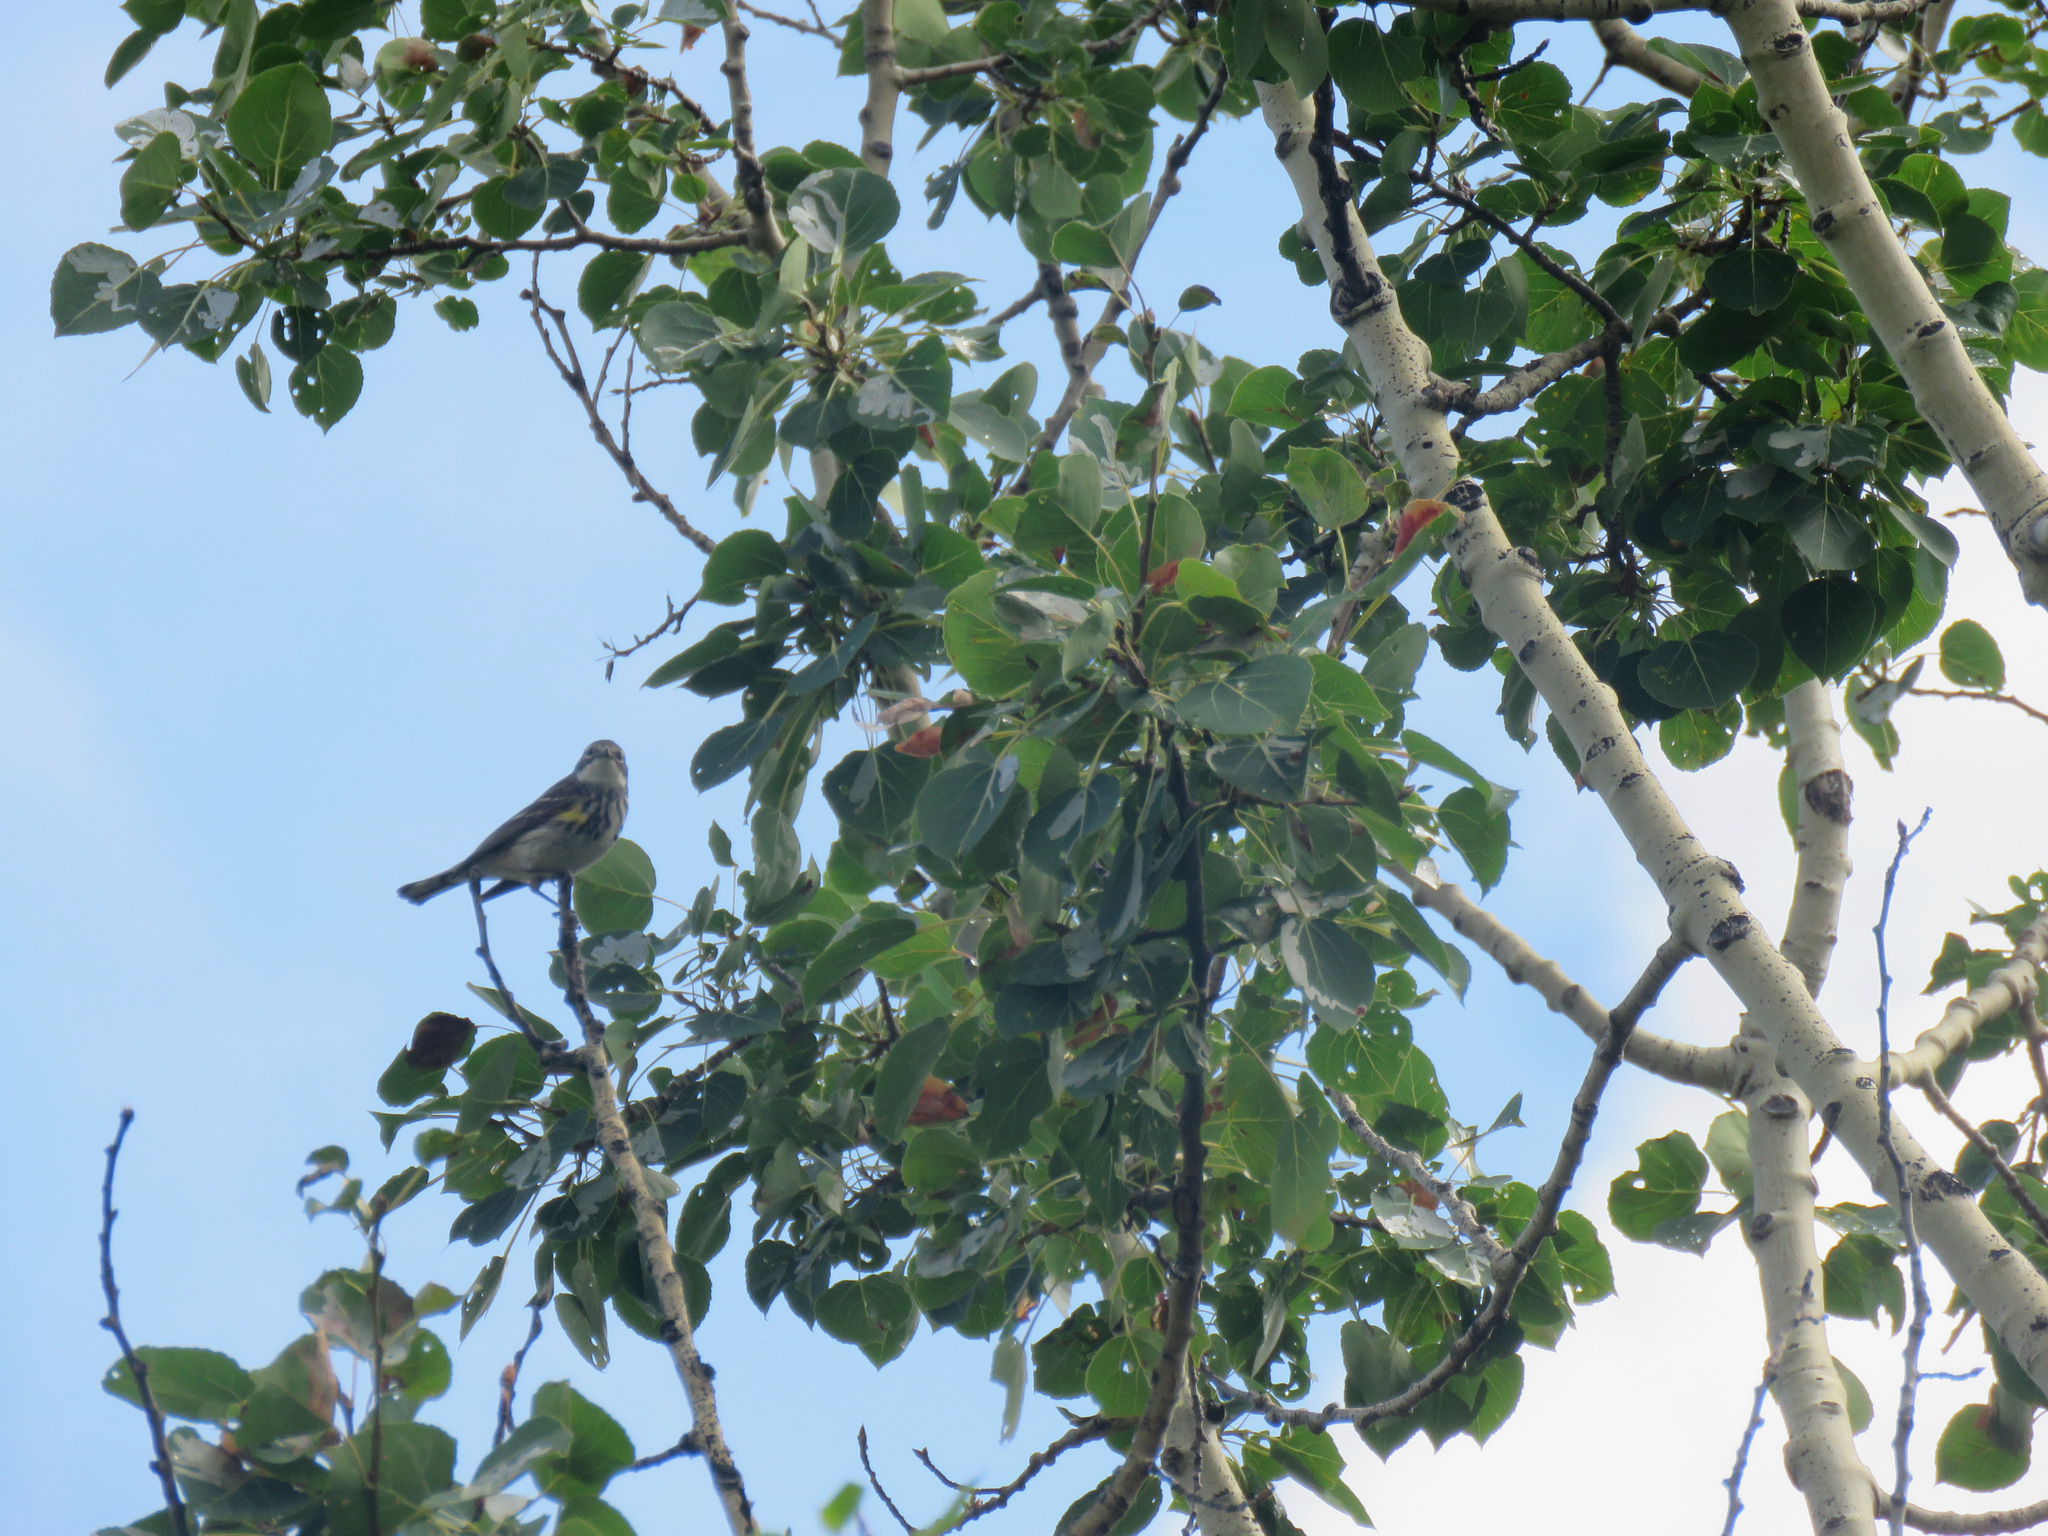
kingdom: Animalia
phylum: Chordata
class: Aves
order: Passeriformes
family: Parulidae
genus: Setophaga
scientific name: Setophaga coronata
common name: Myrtle warbler
